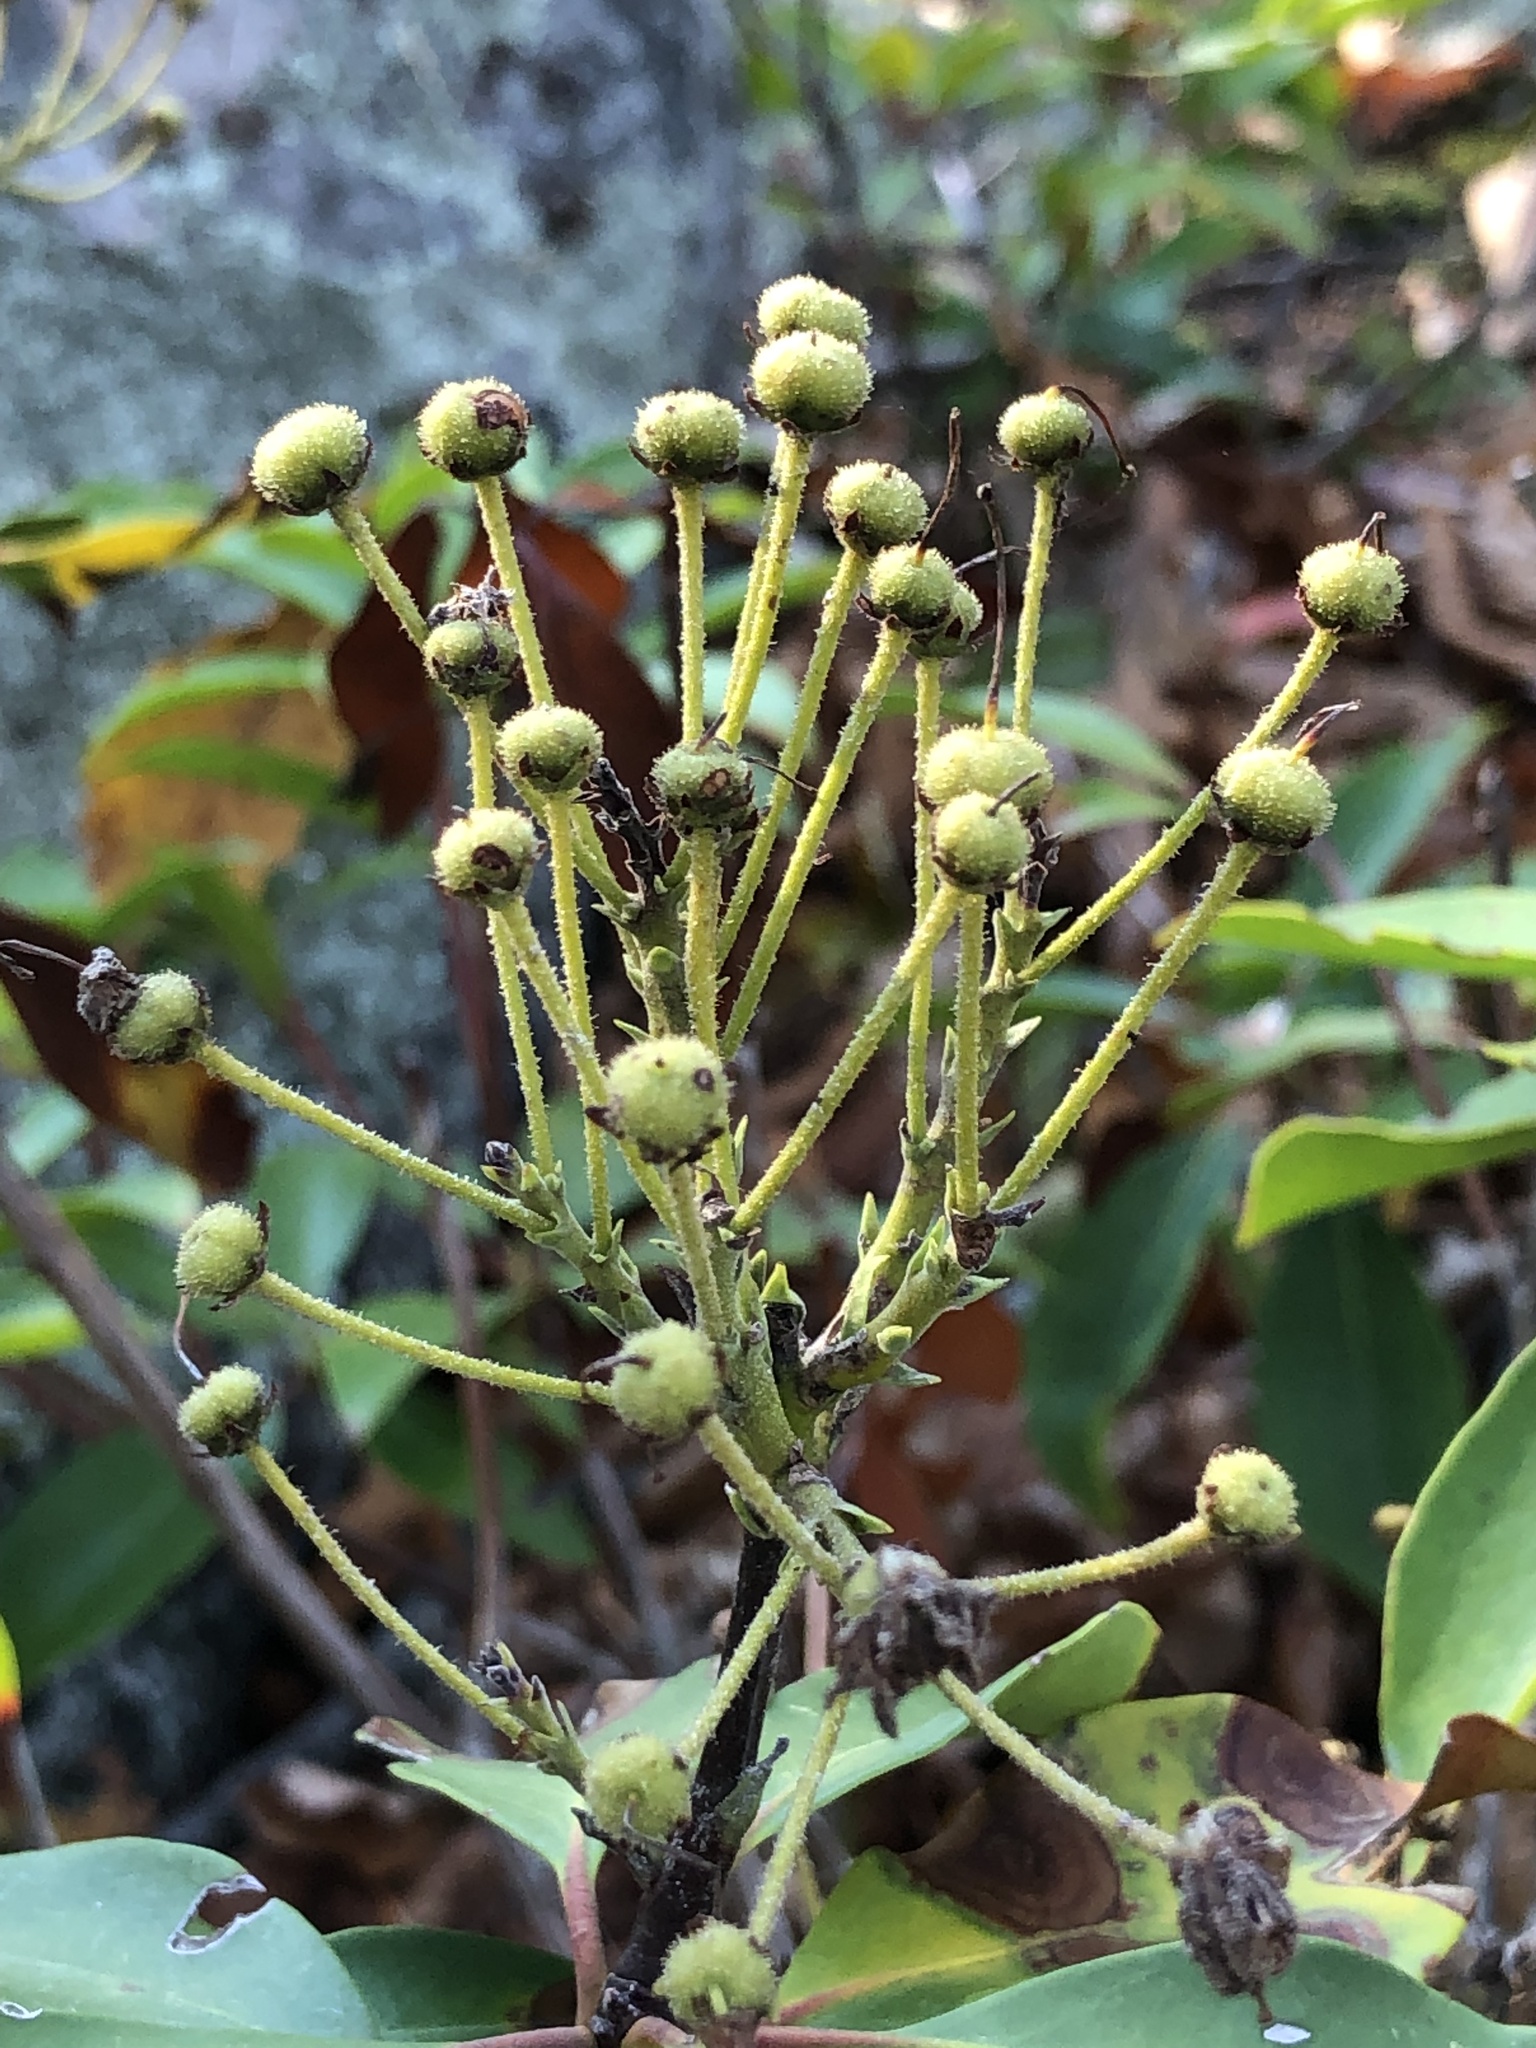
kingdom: Plantae
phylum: Tracheophyta
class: Magnoliopsida
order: Ericales
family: Ericaceae
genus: Kalmia
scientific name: Kalmia latifolia
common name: Mountain-laurel
